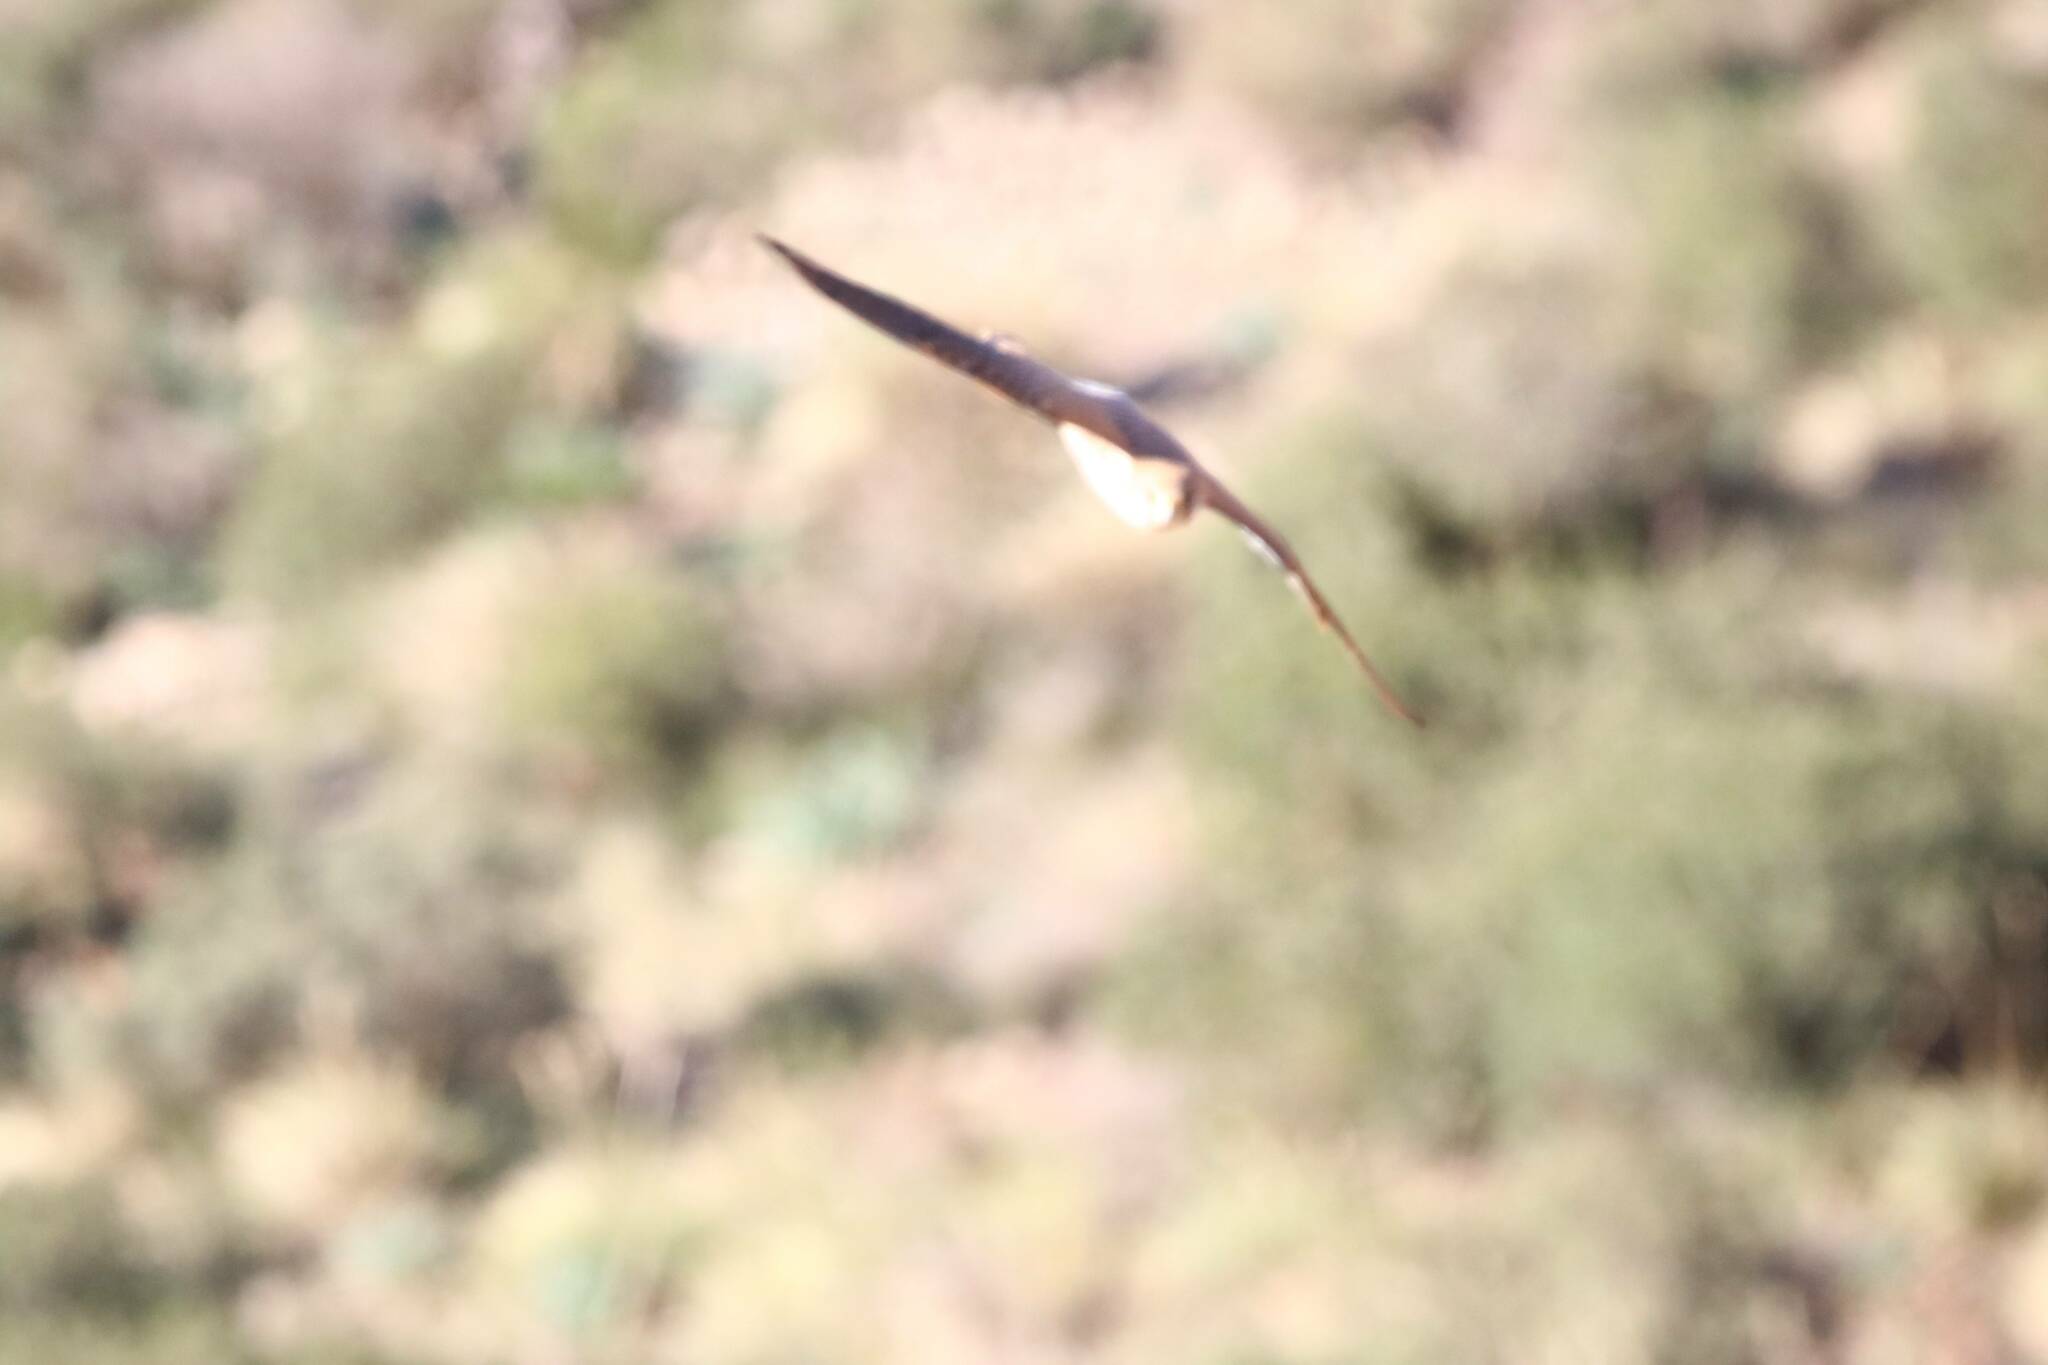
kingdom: Animalia
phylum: Chordata
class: Aves
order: Falconiformes
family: Falconidae
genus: Falco
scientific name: Falco naumanni
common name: Lesser kestrel
